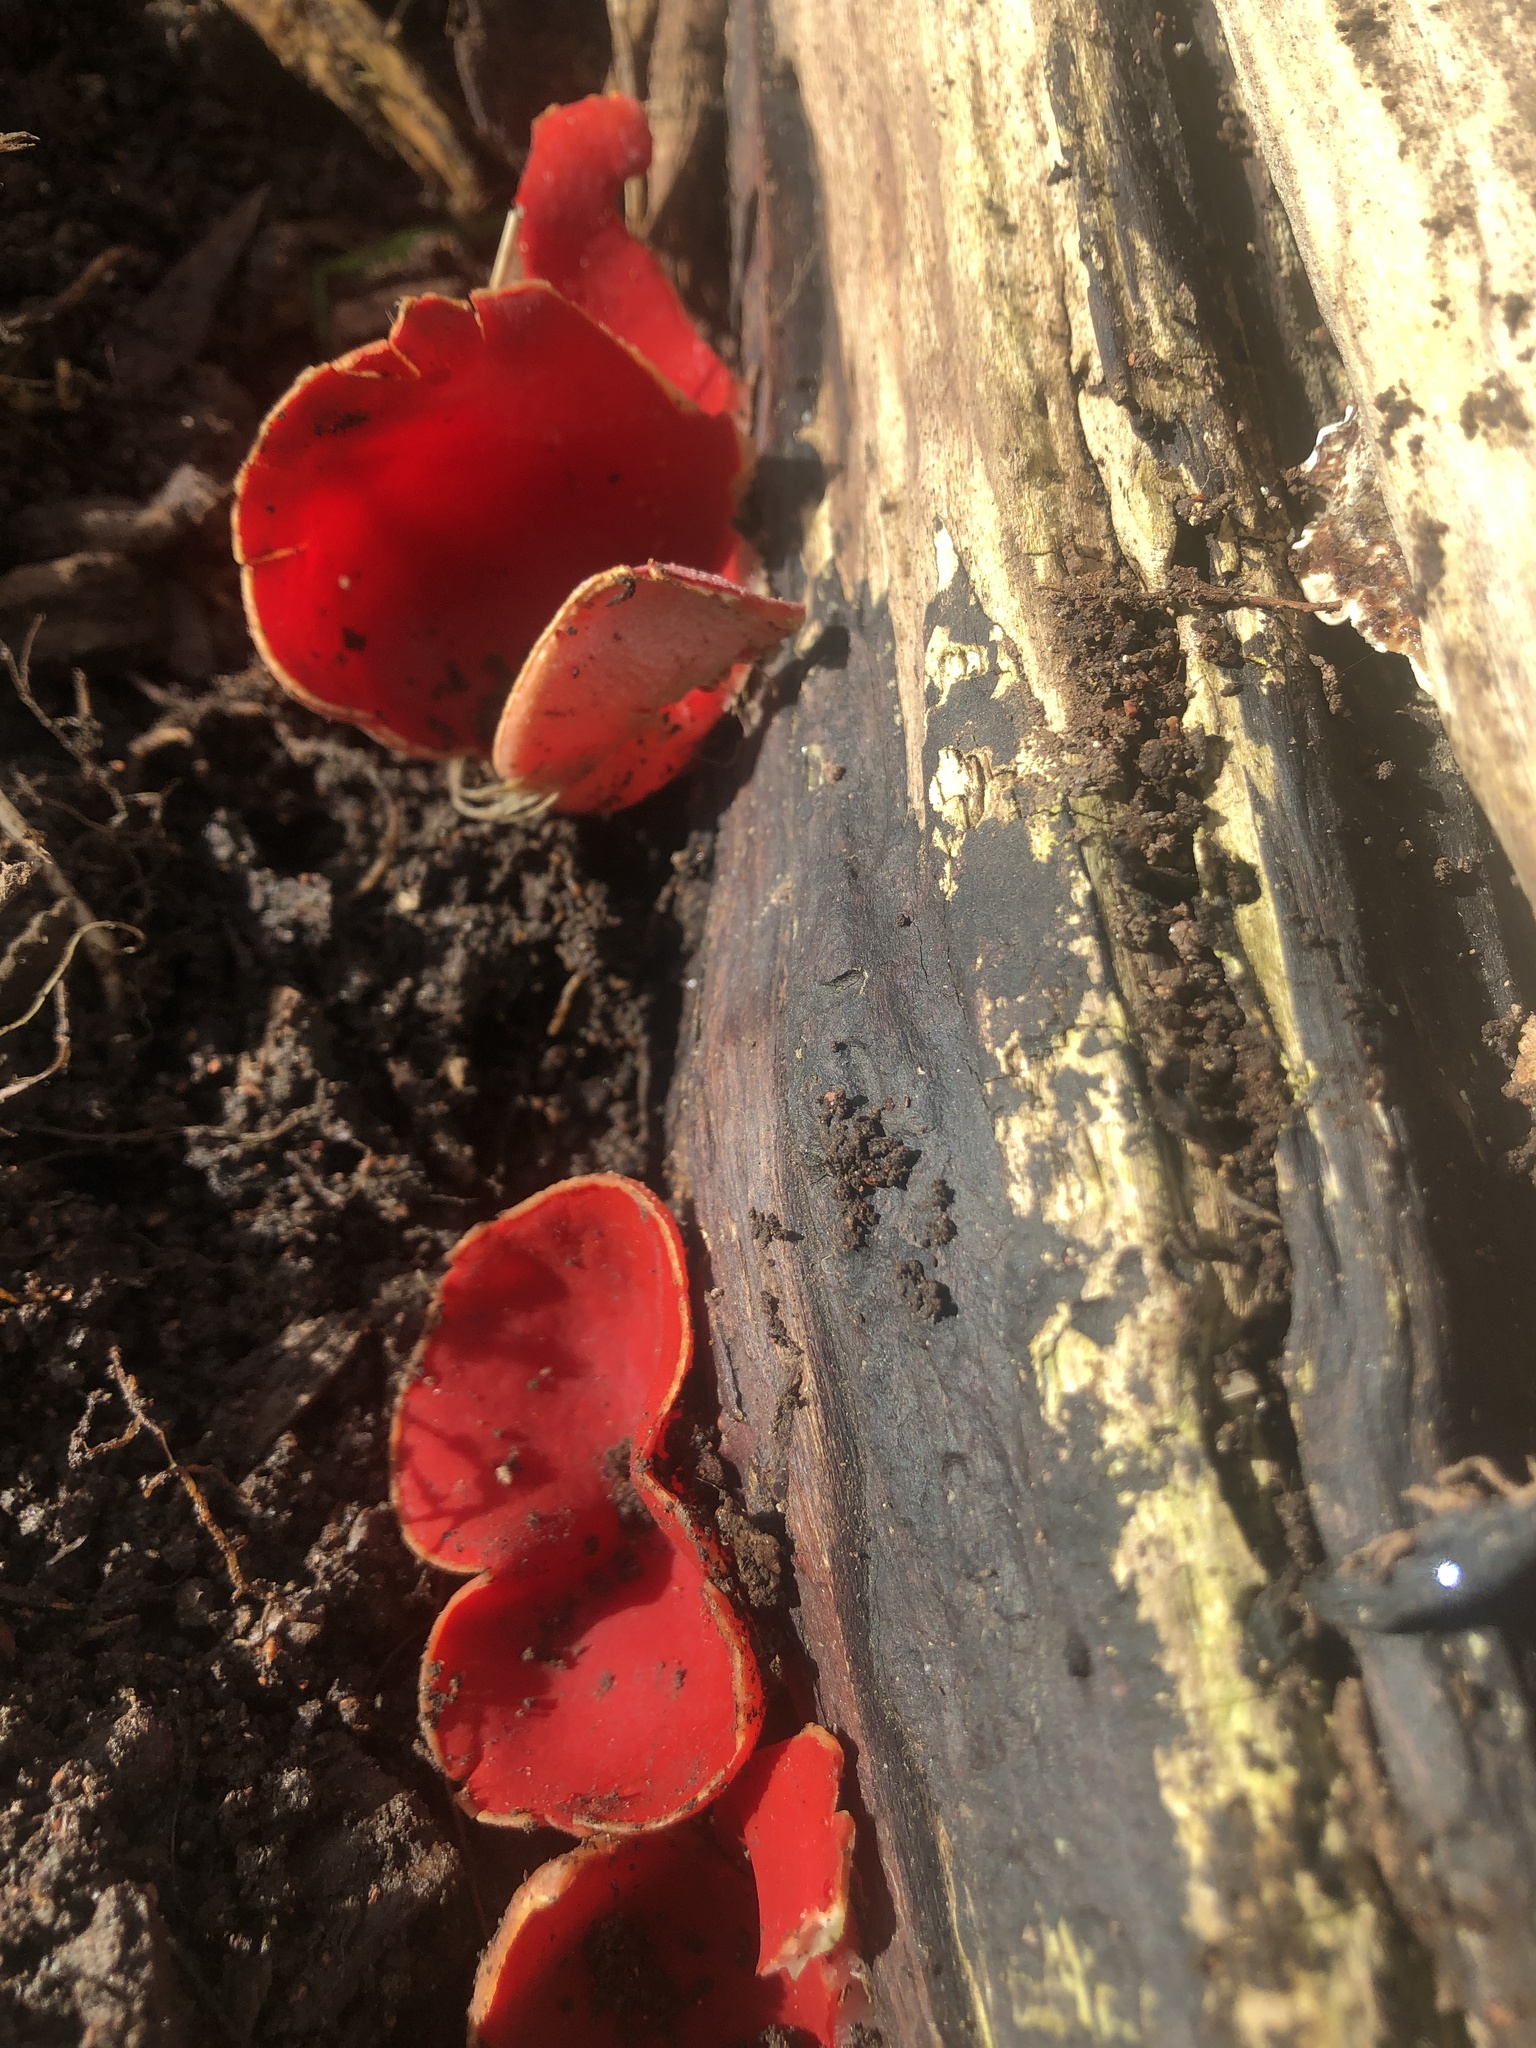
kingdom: Fungi
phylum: Ascomycota
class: Pezizomycetes
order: Pezizales
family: Sarcoscyphaceae
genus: Sarcoscypha
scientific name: Sarcoscypha
